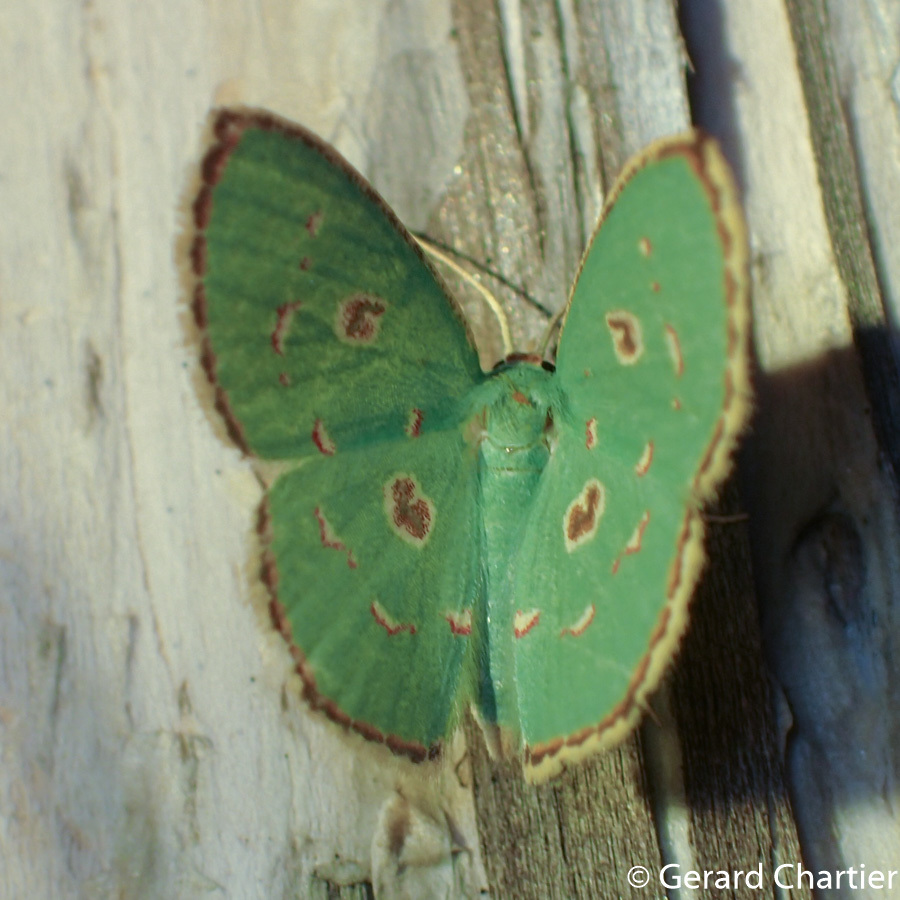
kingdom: Animalia
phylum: Arthropoda
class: Insecta
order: Lepidoptera
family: Geometridae
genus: Comostola
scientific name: Comostola meritaria
